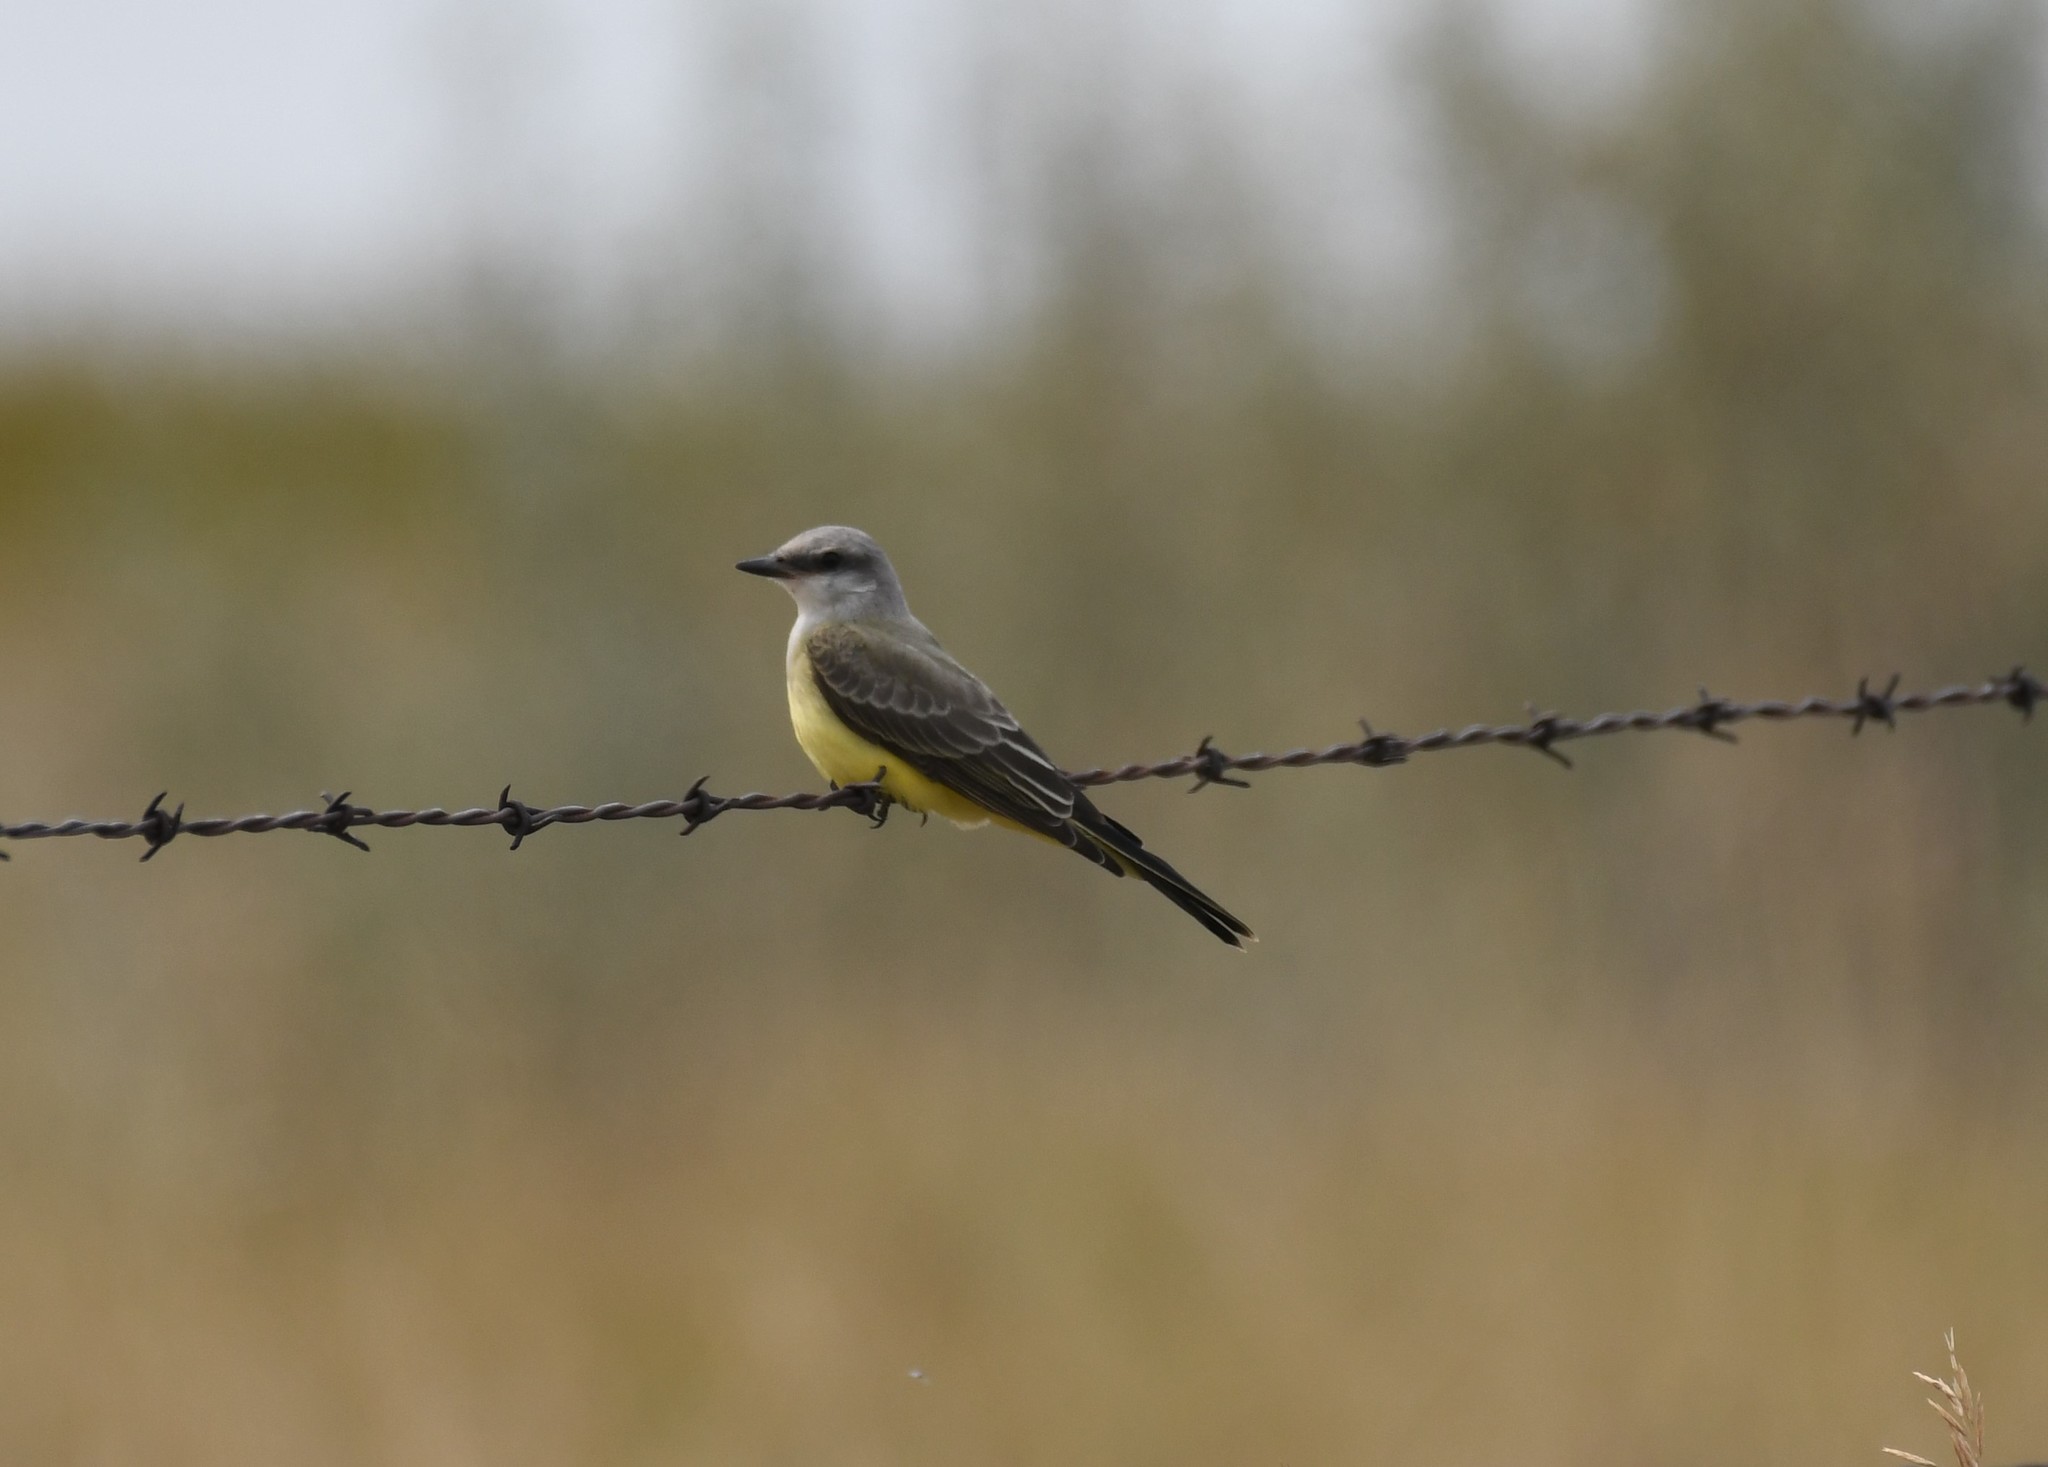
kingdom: Animalia
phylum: Chordata
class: Aves
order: Passeriformes
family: Tyrannidae
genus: Tyrannus
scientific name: Tyrannus verticalis
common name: Western kingbird
